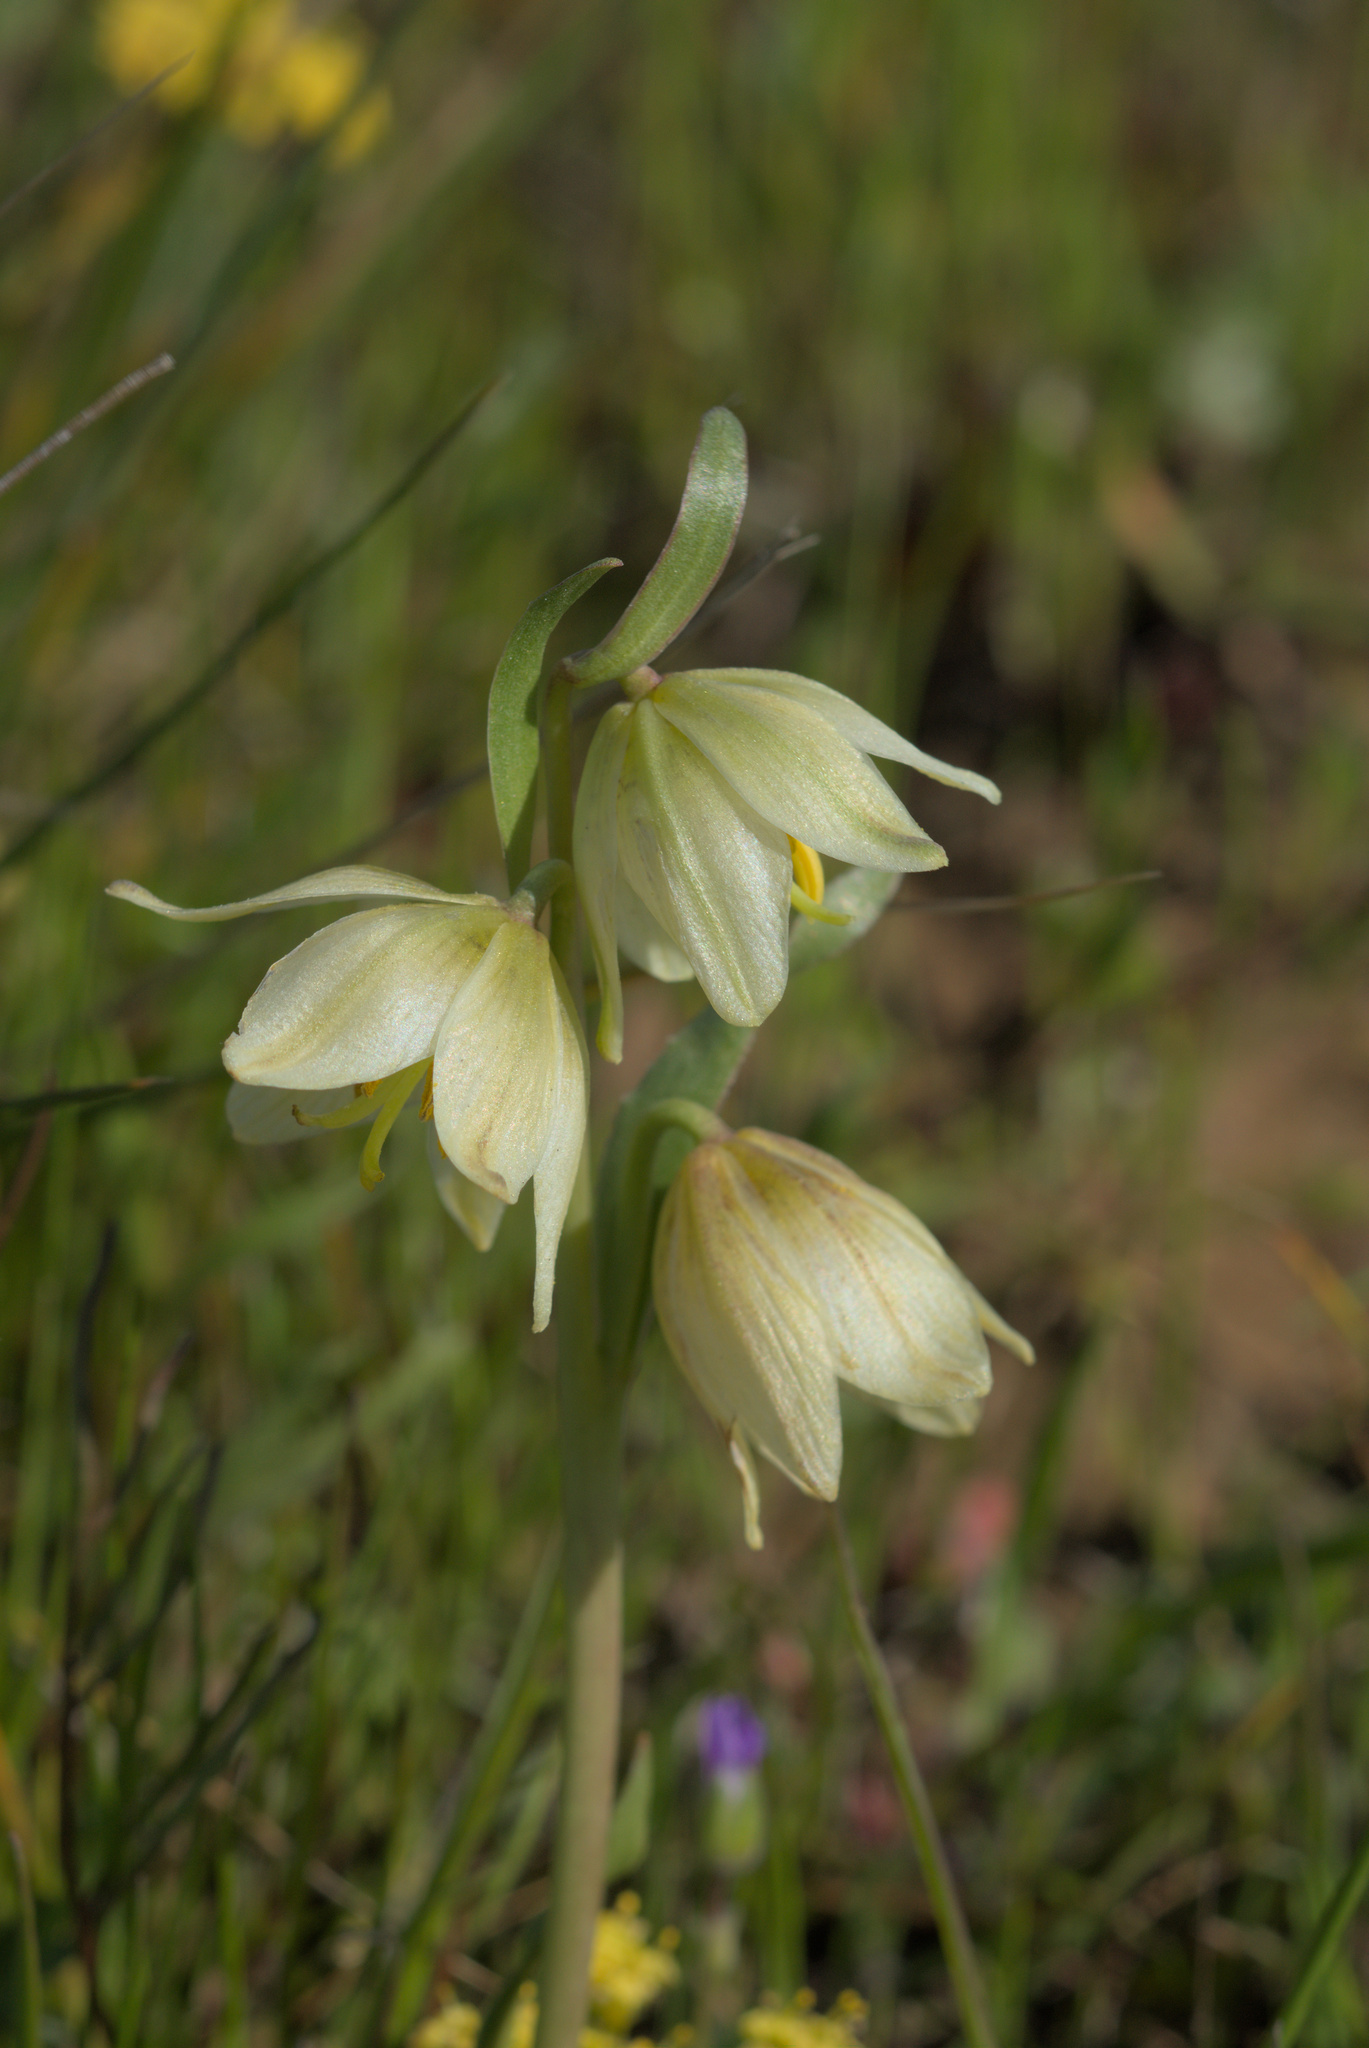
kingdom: Plantae
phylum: Tracheophyta
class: Liliopsida
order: Liliales
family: Liliaceae
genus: Fritillaria
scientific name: Fritillaria liliacea
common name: Fragrant fritillary
